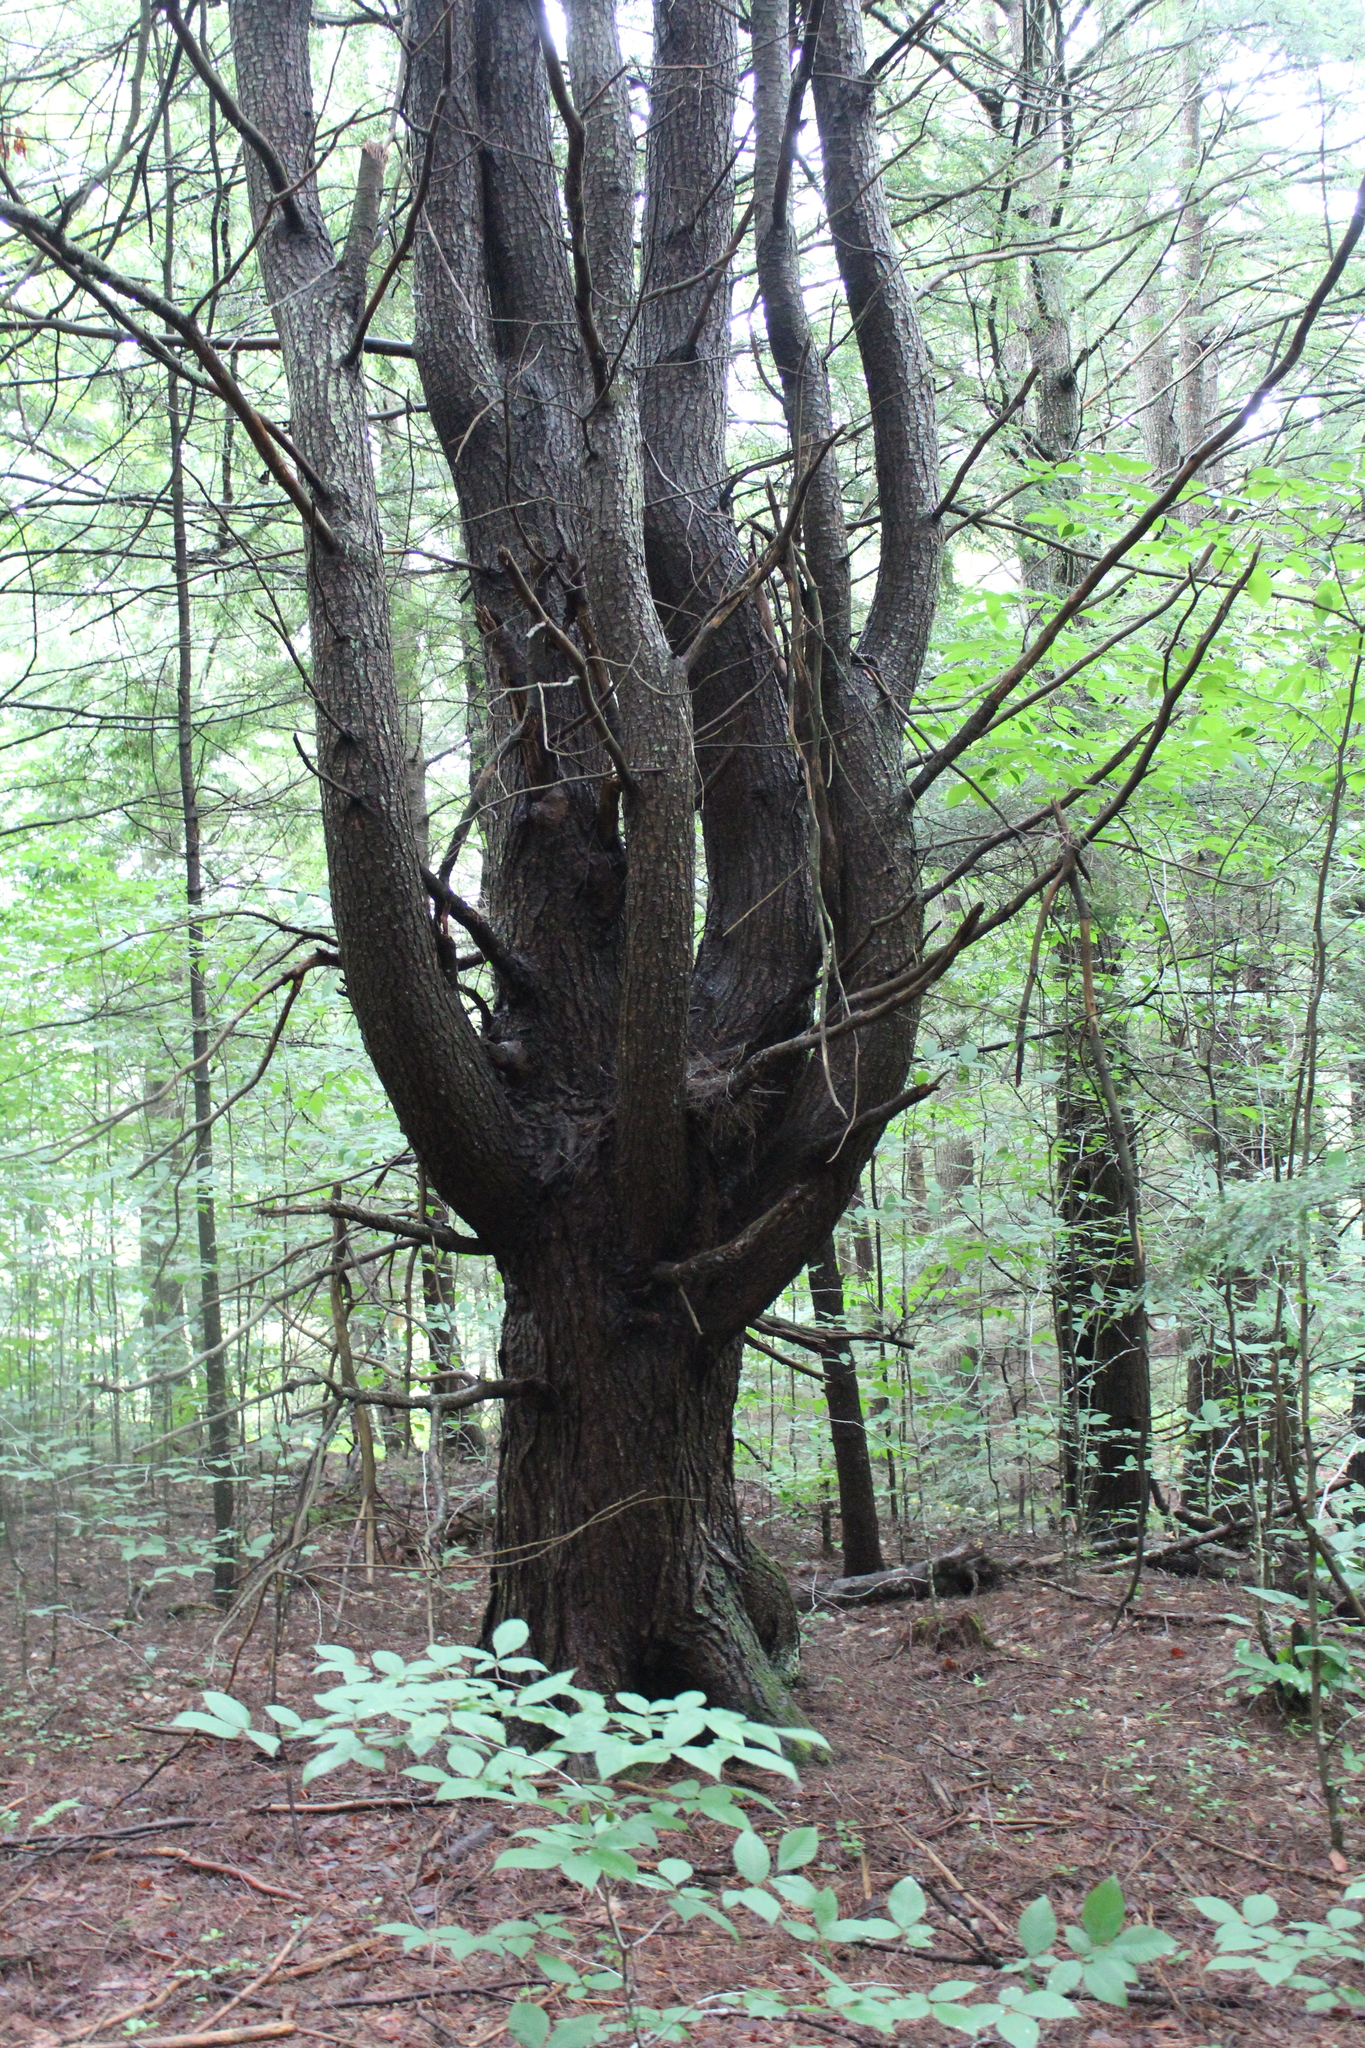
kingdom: Plantae
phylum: Tracheophyta
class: Pinopsida
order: Pinales
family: Pinaceae
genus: Pinus
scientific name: Pinus strobus
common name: Weymouth pine
